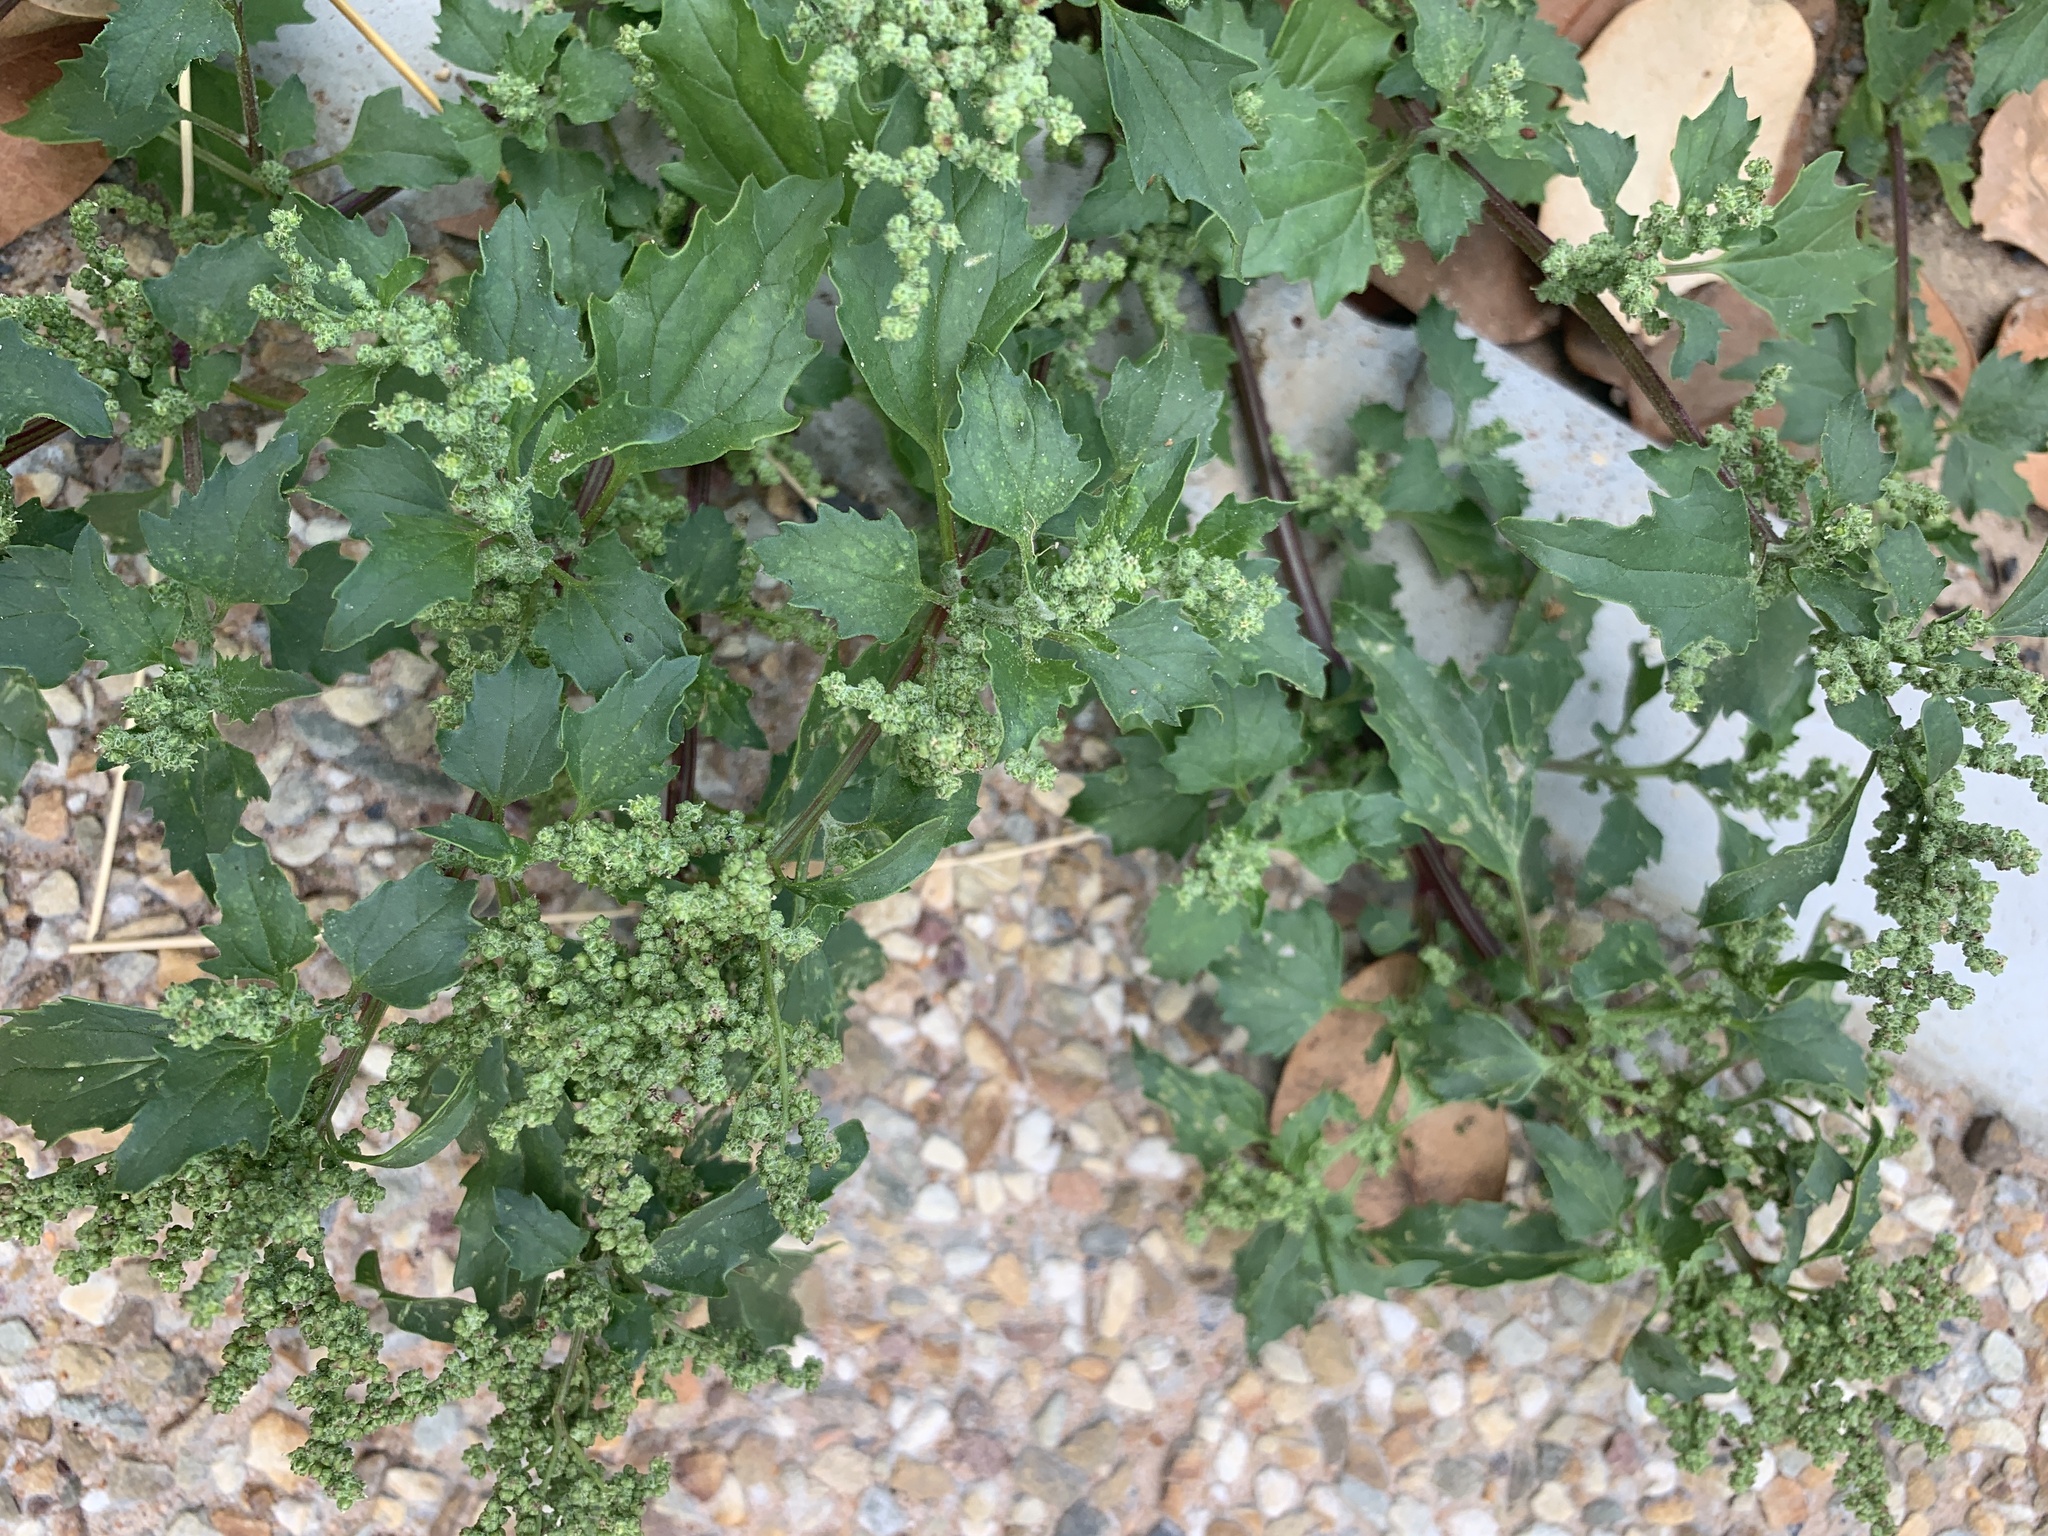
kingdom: Plantae
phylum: Tracheophyta
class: Magnoliopsida
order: Caryophyllales
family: Amaranthaceae
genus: Chenopodiastrum
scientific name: Chenopodiastrum murale
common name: Sowbane
